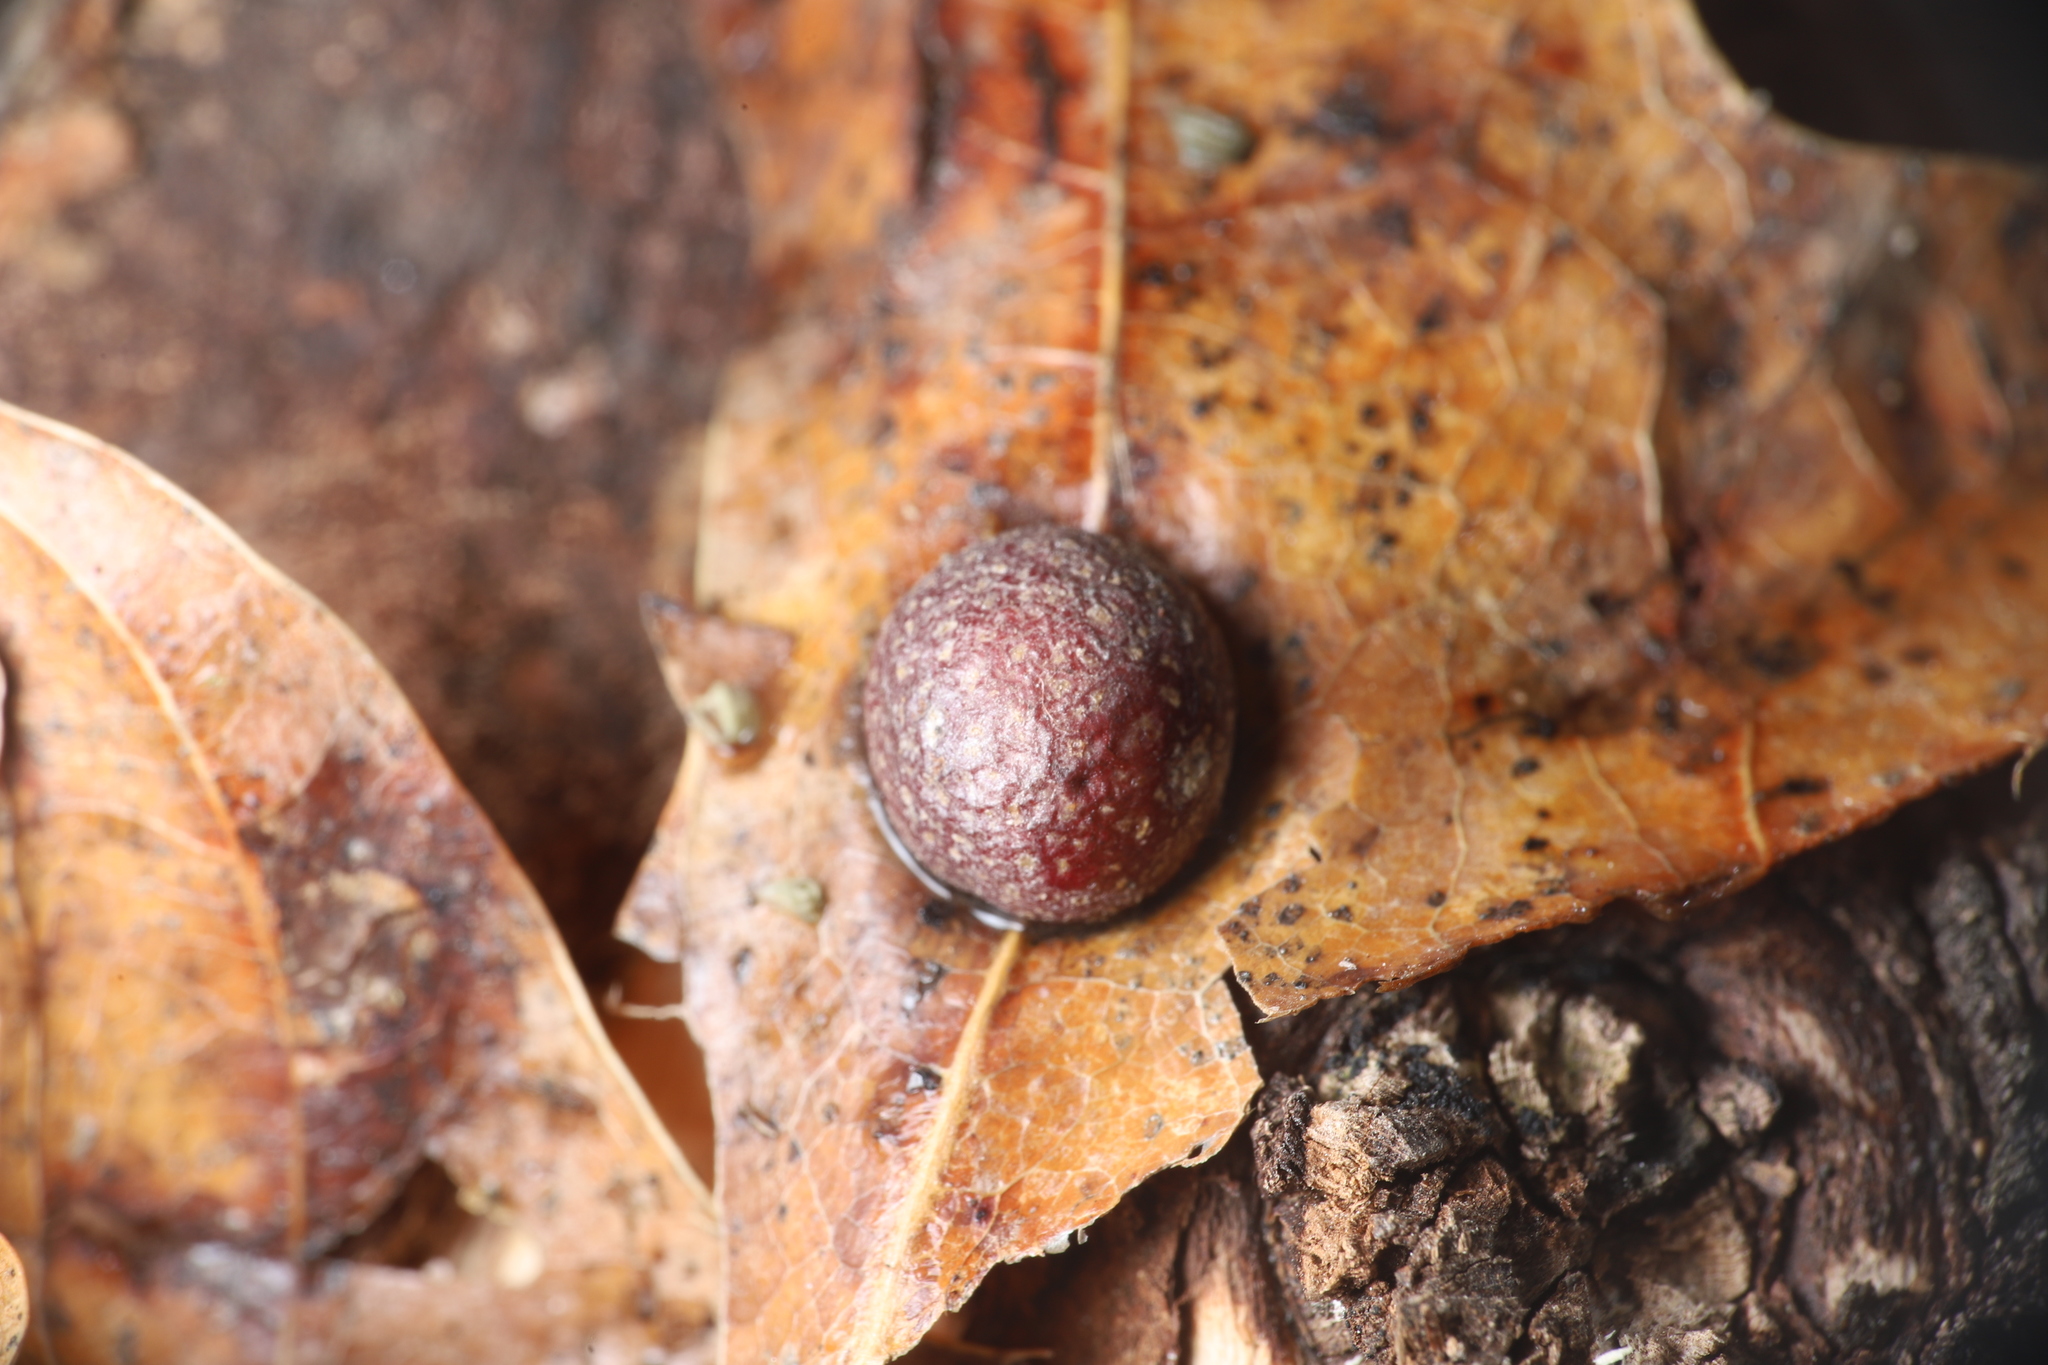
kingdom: Animalia
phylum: Arthropoda
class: Insecta
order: Diptera
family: Cecidomyiidae
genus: Polystepha
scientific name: Polystepha pilulae
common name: Oak leaf gall midge
